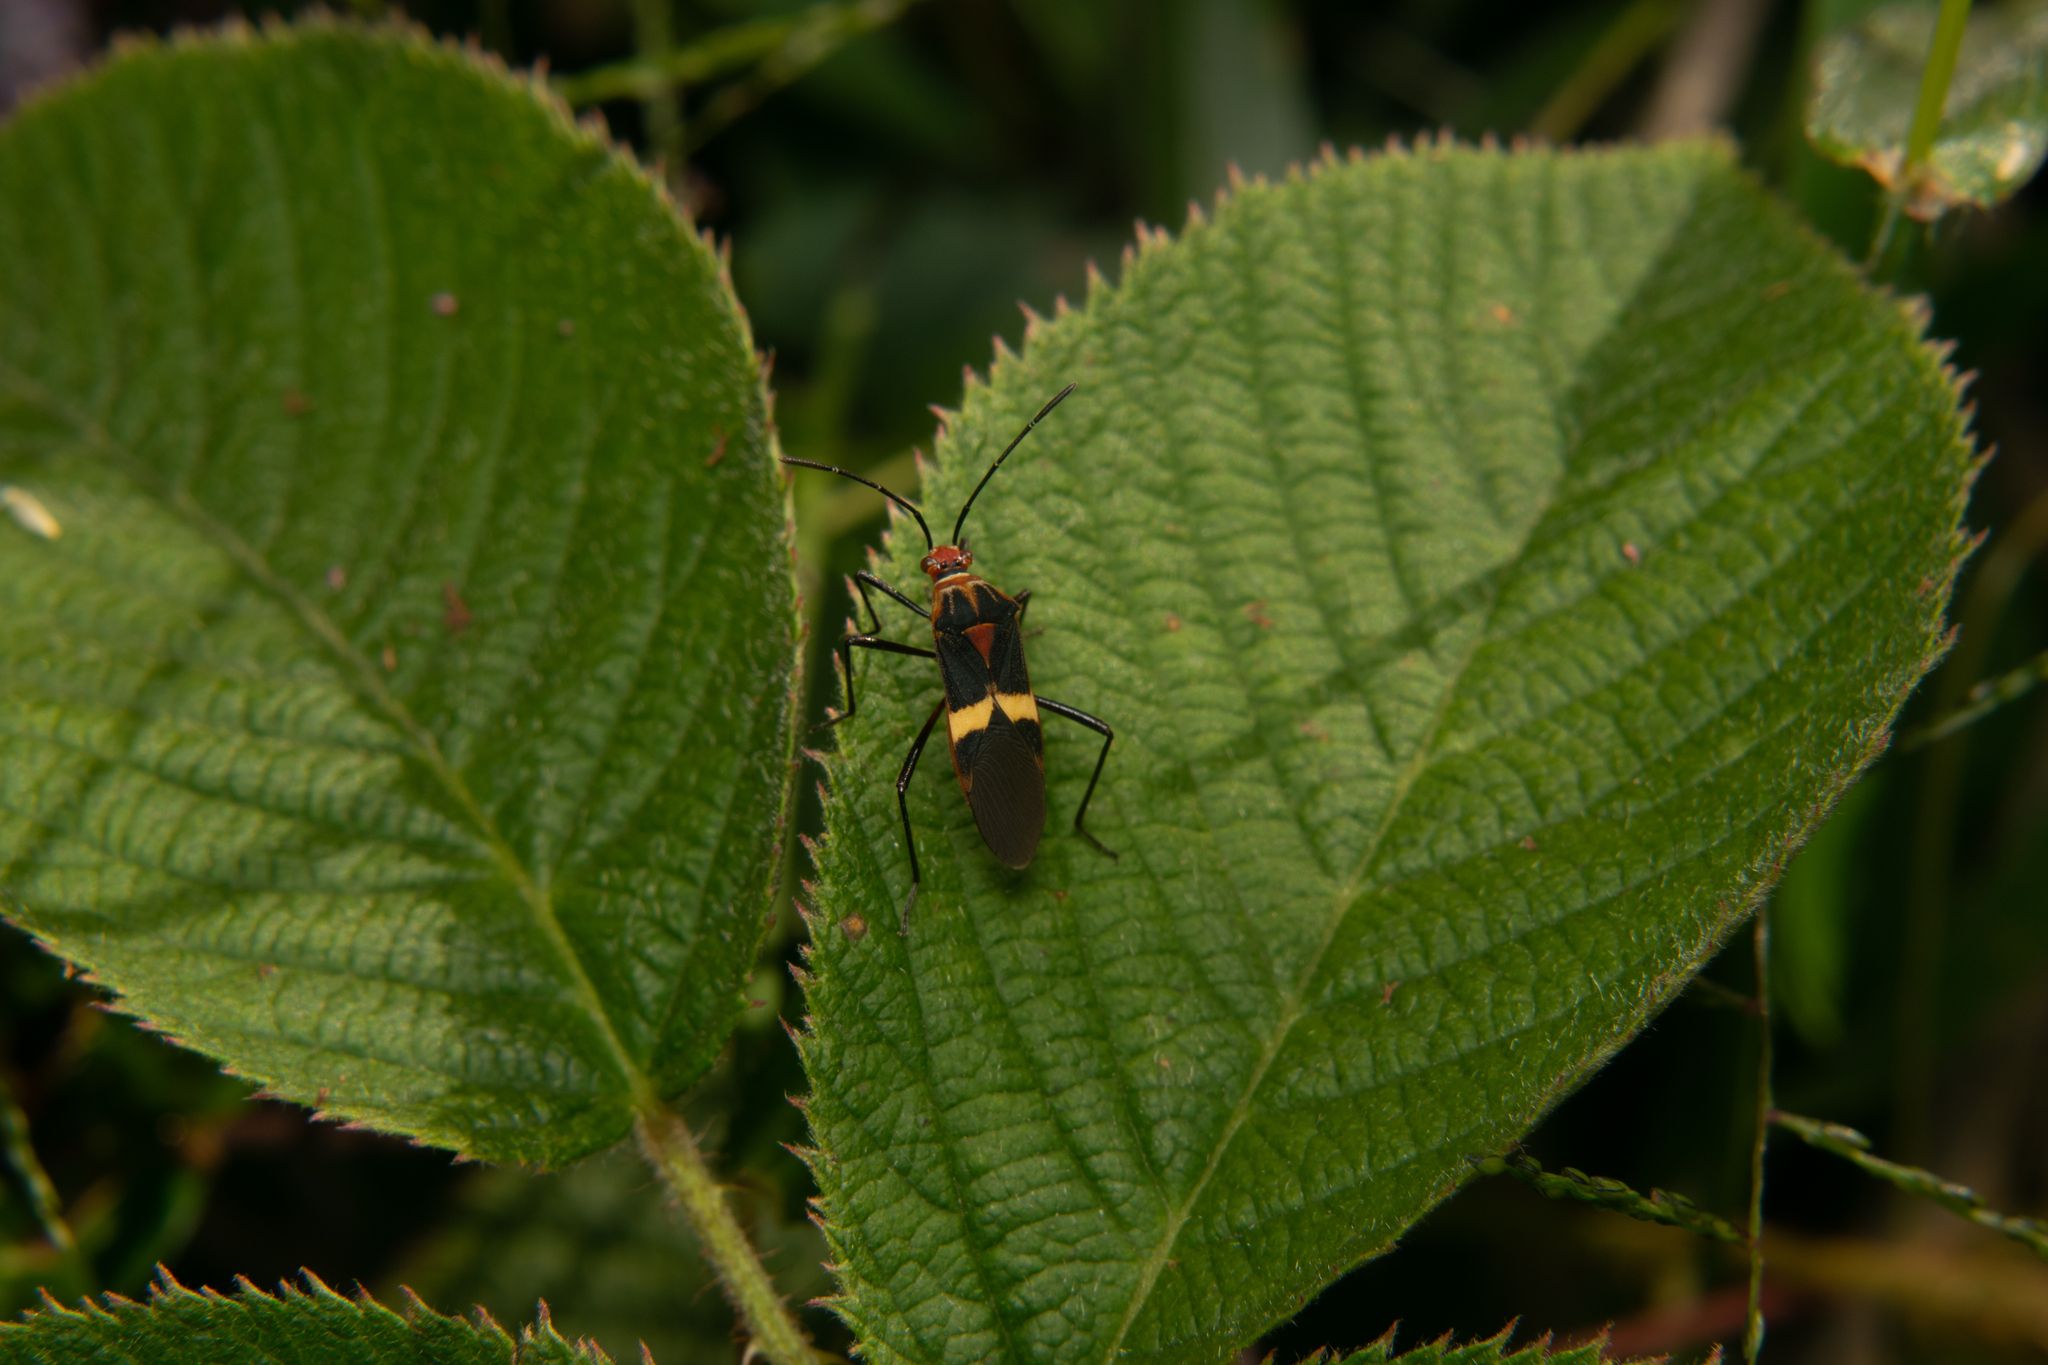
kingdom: Animalia
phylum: Arthropoda
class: Insecta
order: Hemiptera
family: Coreidae
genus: Hypselonotus
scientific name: Hypselonotus interruptus
